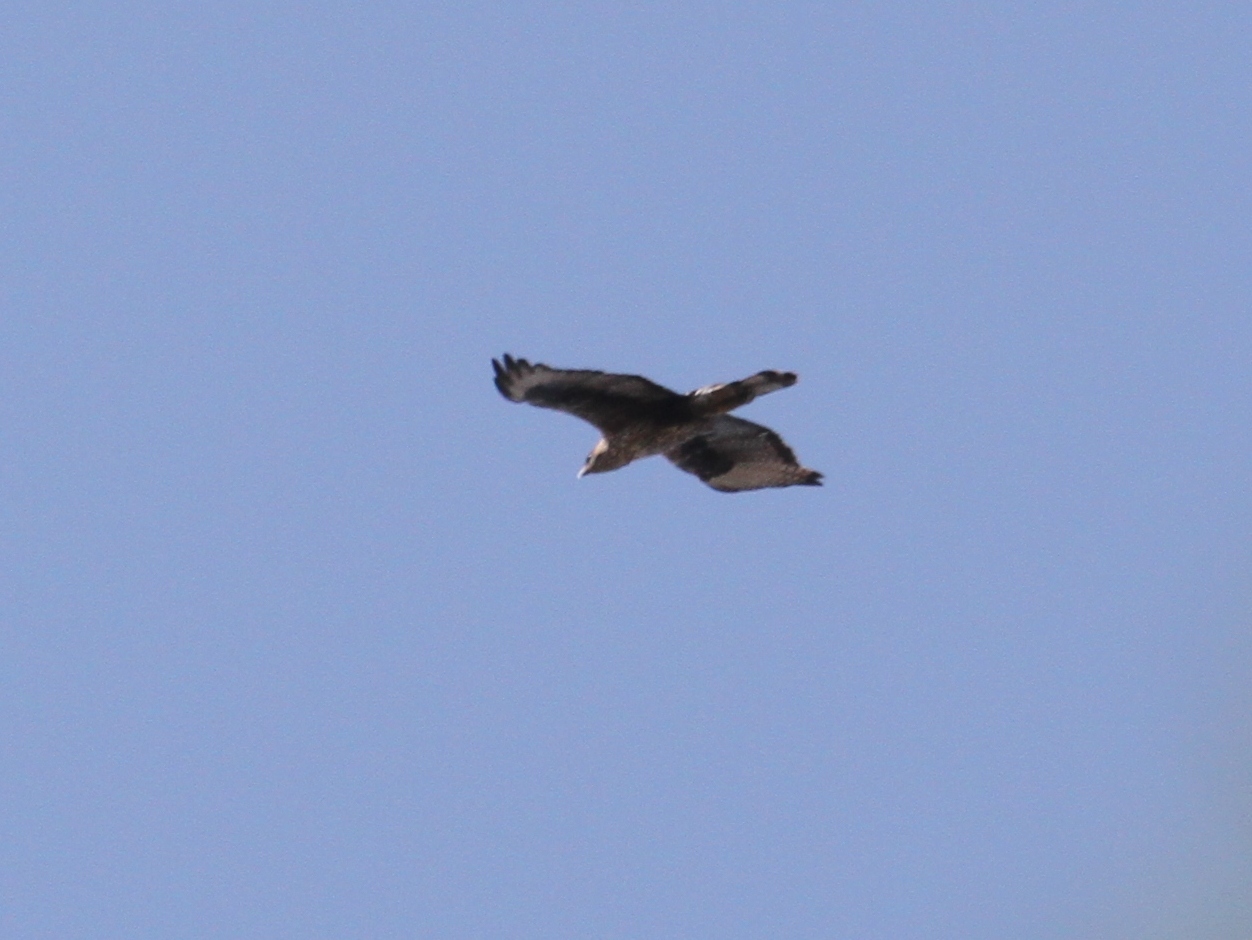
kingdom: Animalia
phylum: Chordata
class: Aves
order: Accipitriformes
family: Accipitridae
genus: Aquila
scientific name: Aquila fasciata
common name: Bonelli's eagle
